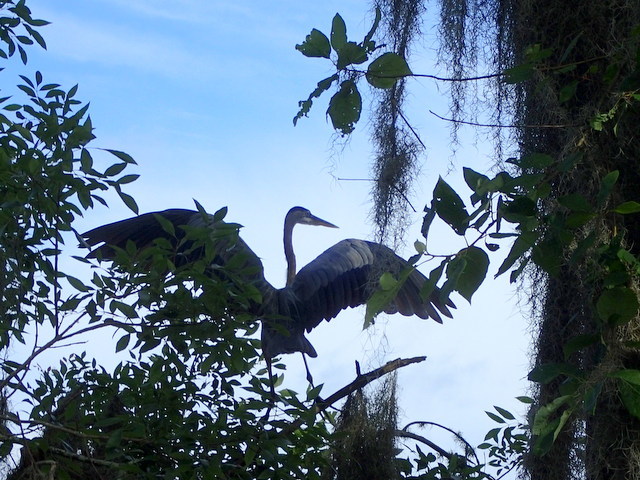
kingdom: Animalia
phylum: Chordata
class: Aves
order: Pelecaniformes
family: Ardeidae
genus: Ardea
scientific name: Ardea herodias
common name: Great blue heron
